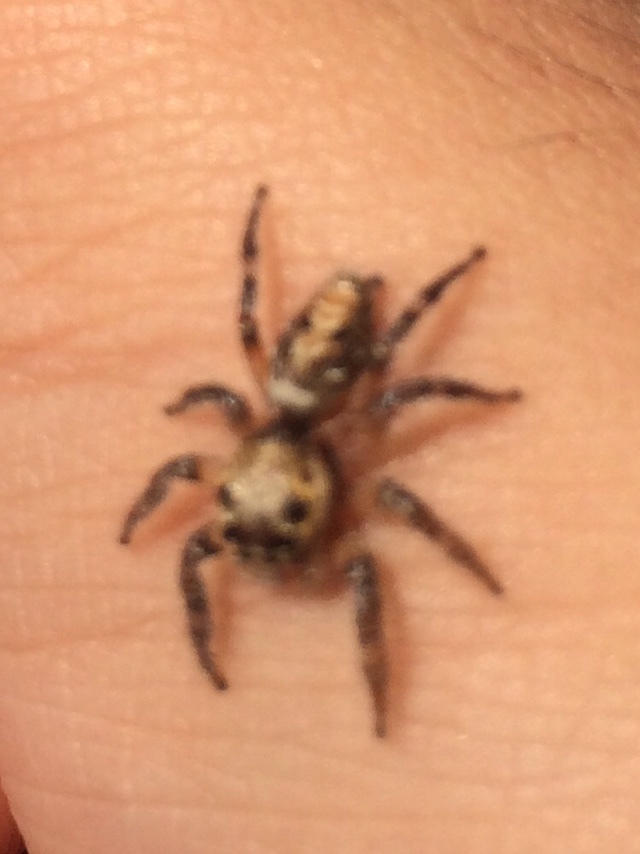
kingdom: Animalia
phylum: Arthropoda
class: Arachnida
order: Araneae
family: Salticidae
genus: Hyllus
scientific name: Hyllus semicupreus
